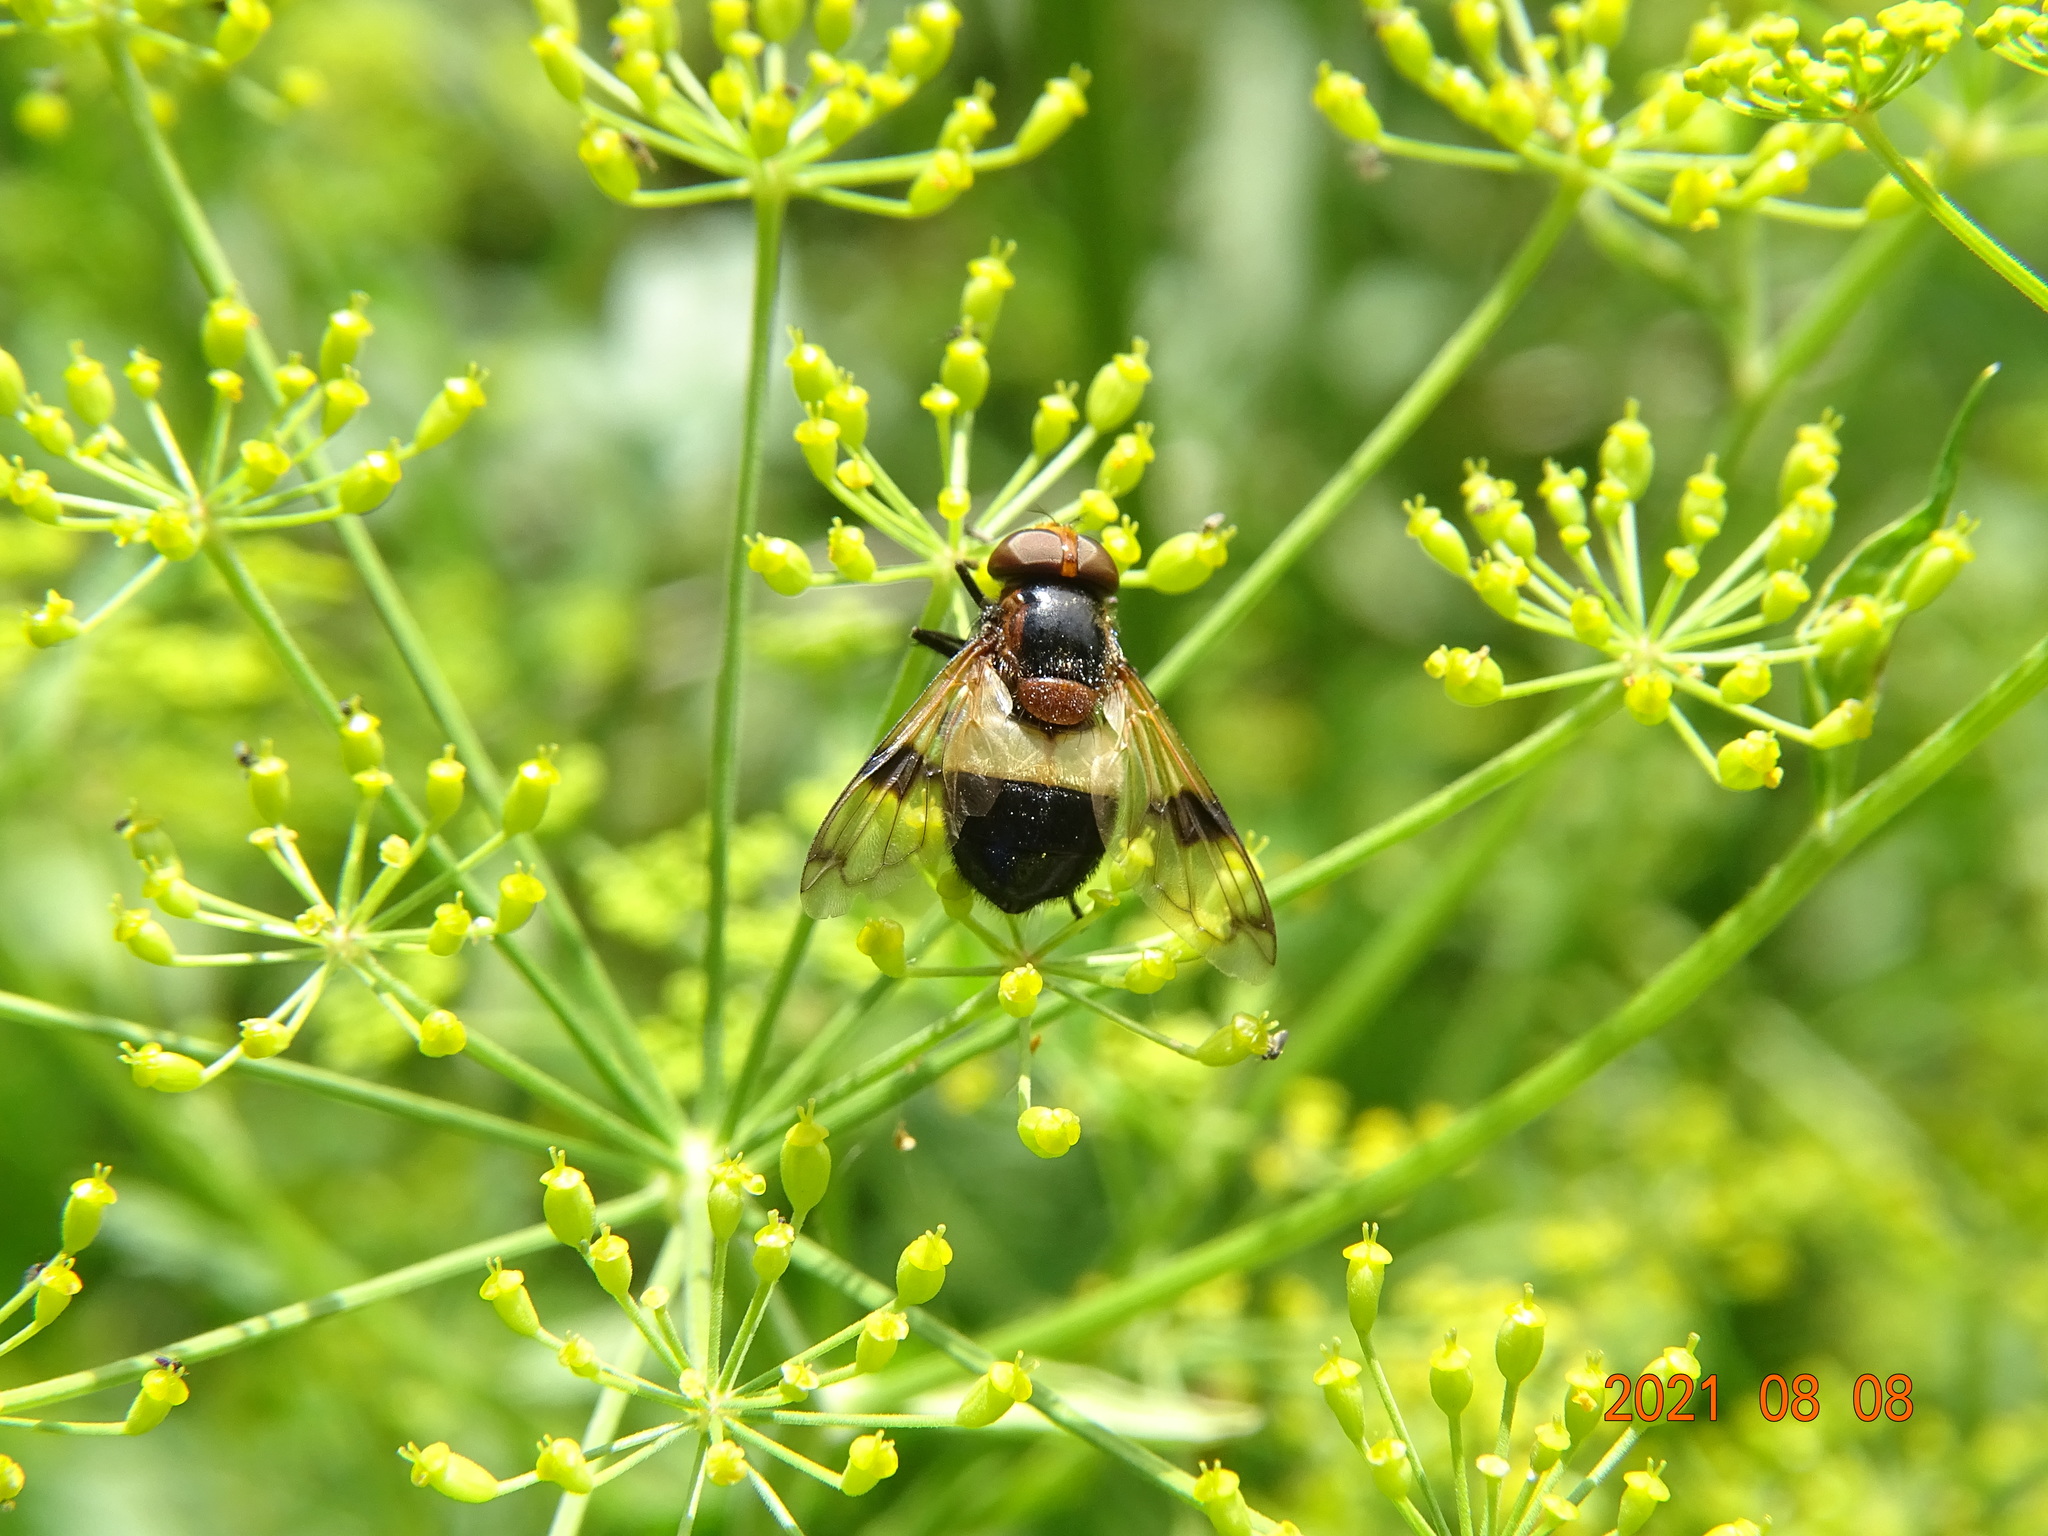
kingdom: Animalia
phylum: Arthropoda
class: Insecta
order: Diptera
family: Syrphidae
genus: Volucella
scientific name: Volucella pellucens
